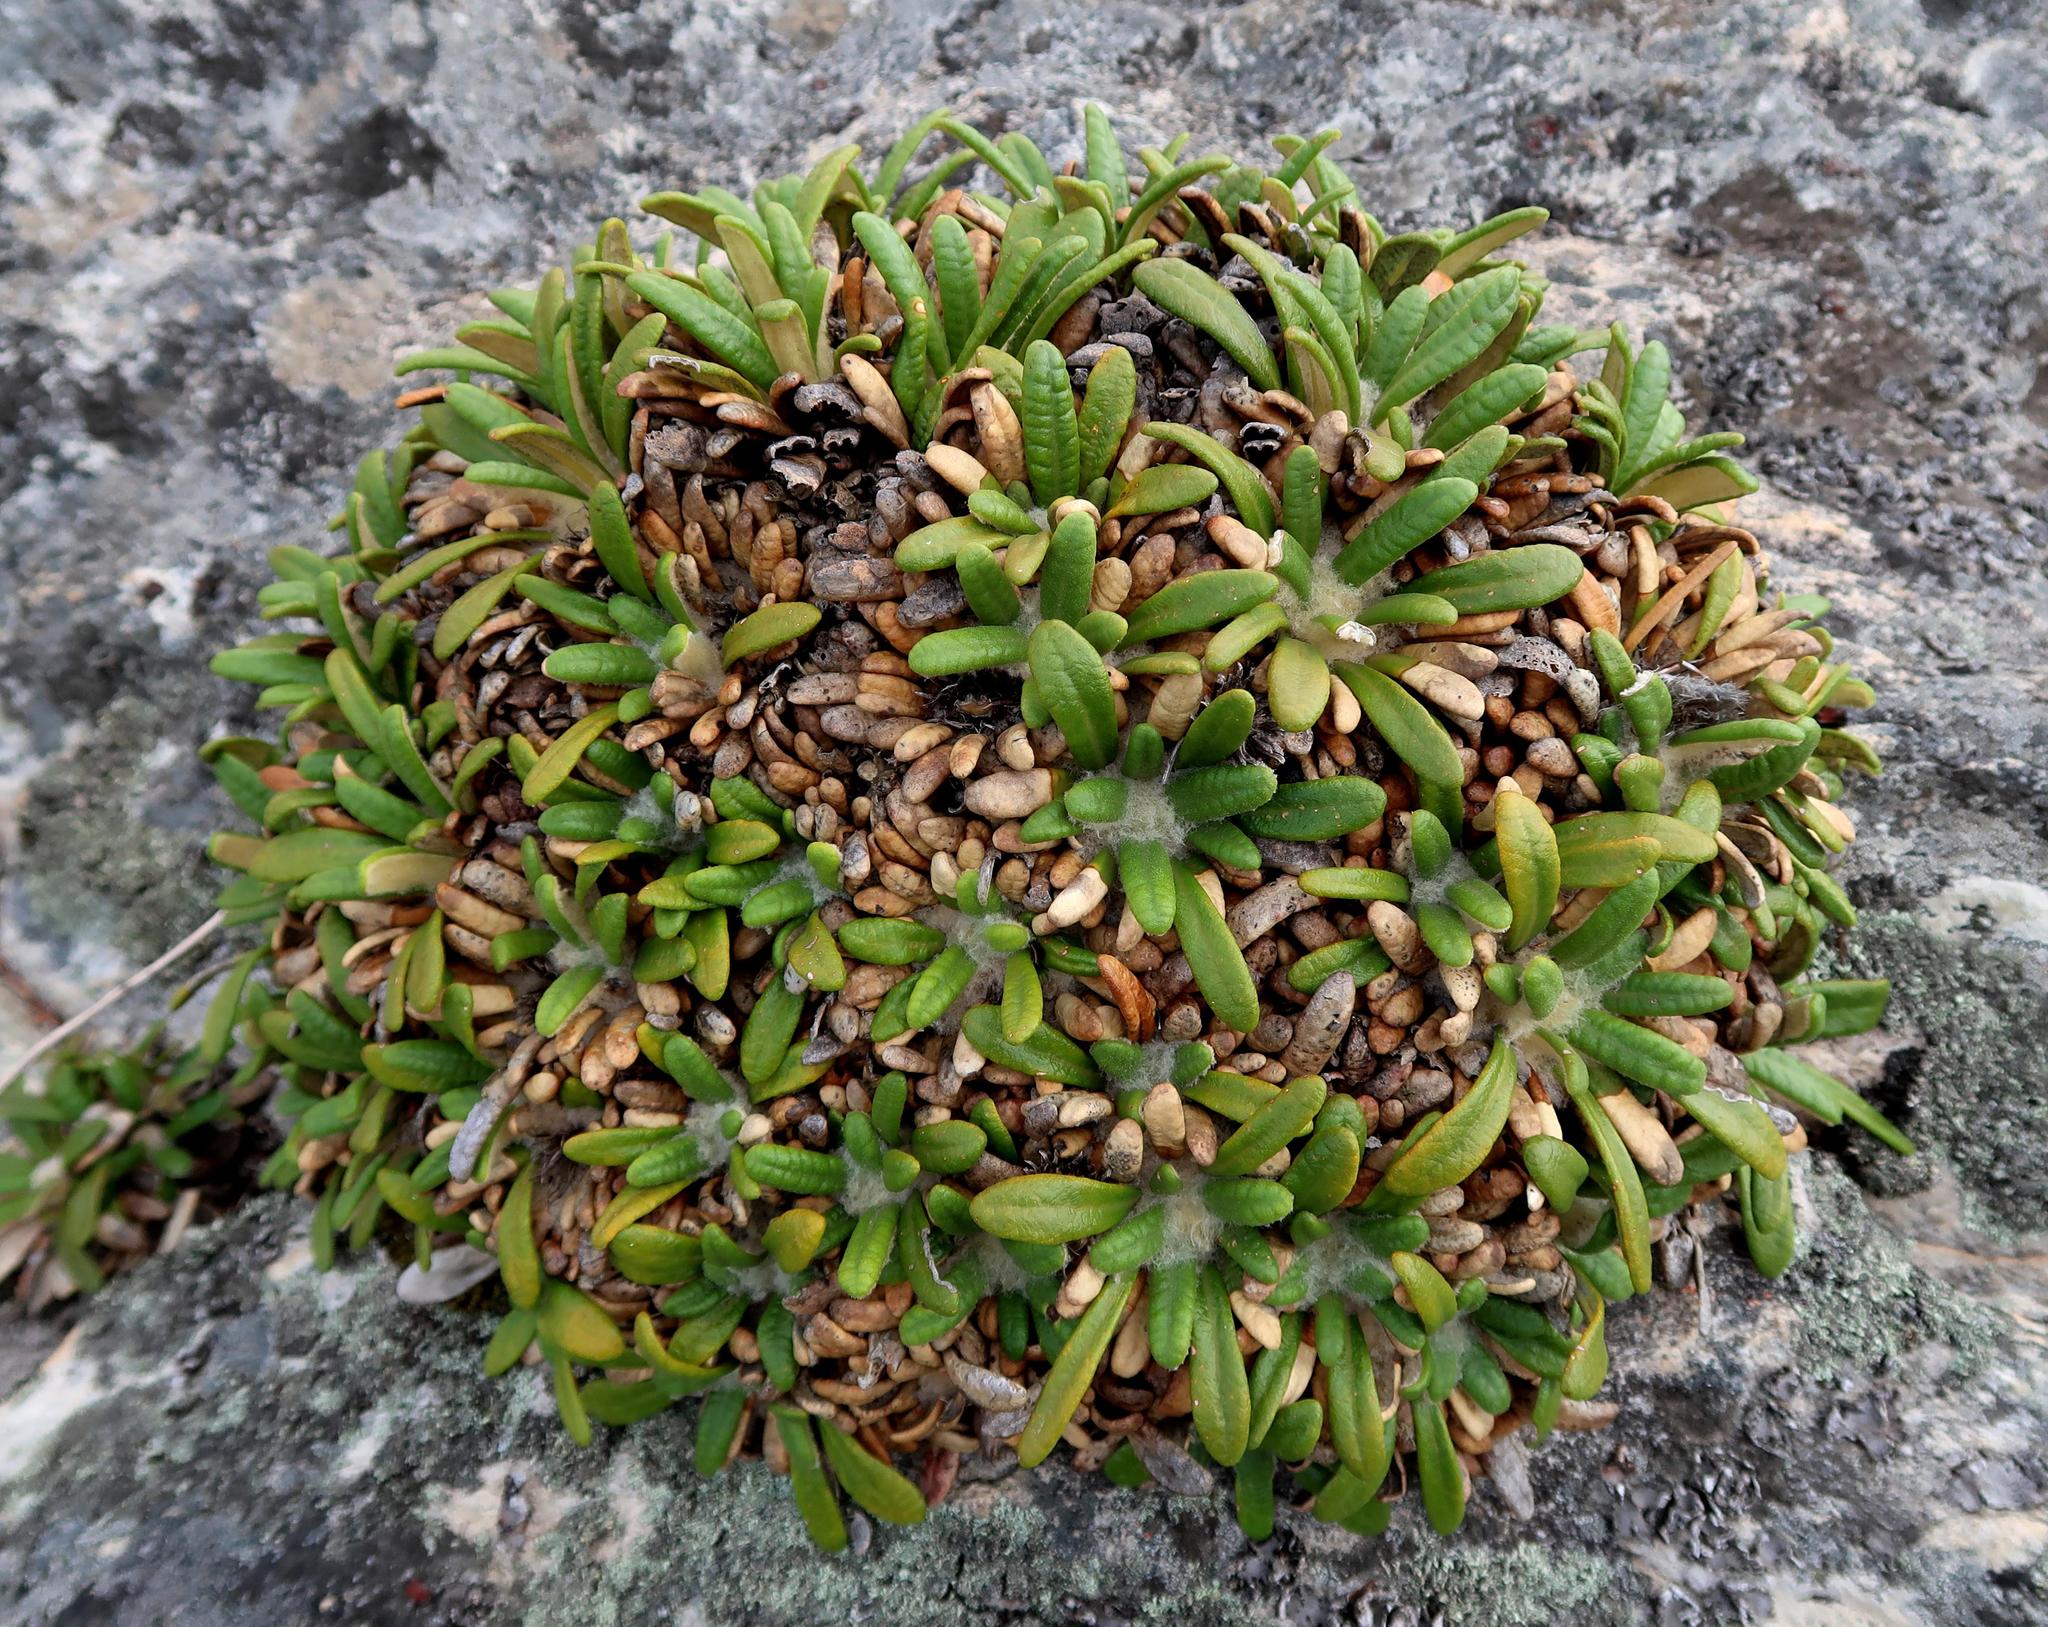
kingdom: Plantae
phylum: Tracheophyta
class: Magnoliopsida
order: Asterales
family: Asteraceae
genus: Oldenburgia
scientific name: Oldenburgia paradoxa
